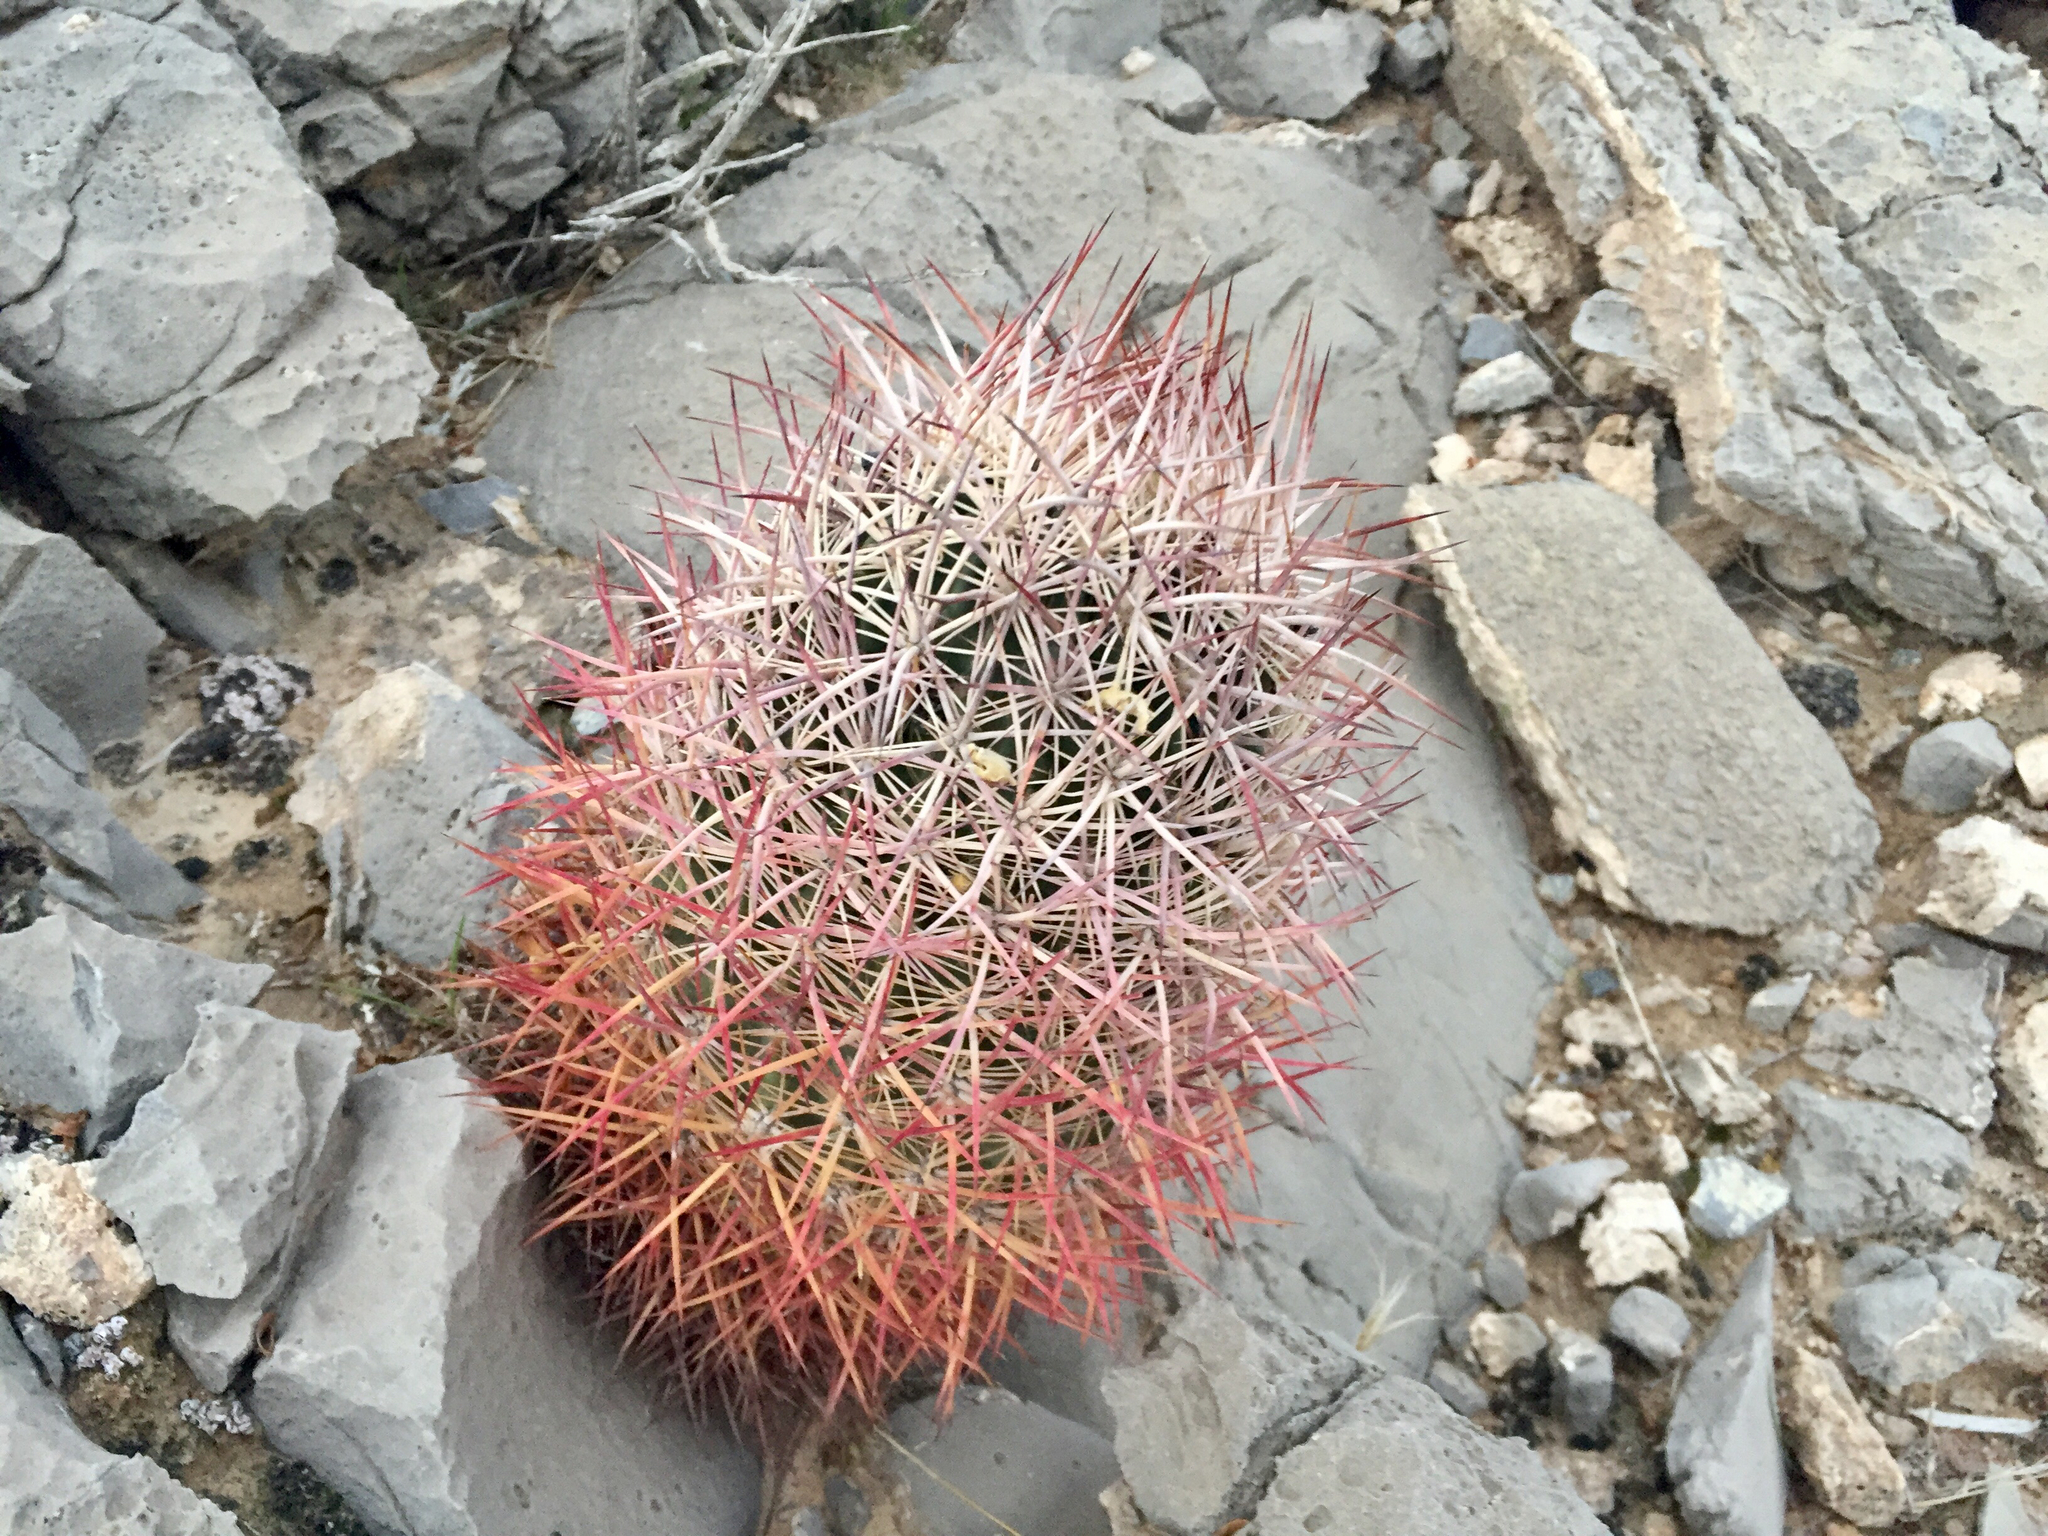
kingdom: Plantae
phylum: Tracheophyta
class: Magnoliopsida
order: Caryophyllales
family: Cactaceae
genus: Ferocactus
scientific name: Ferocactus cylindraceus
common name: California barrel cactus
